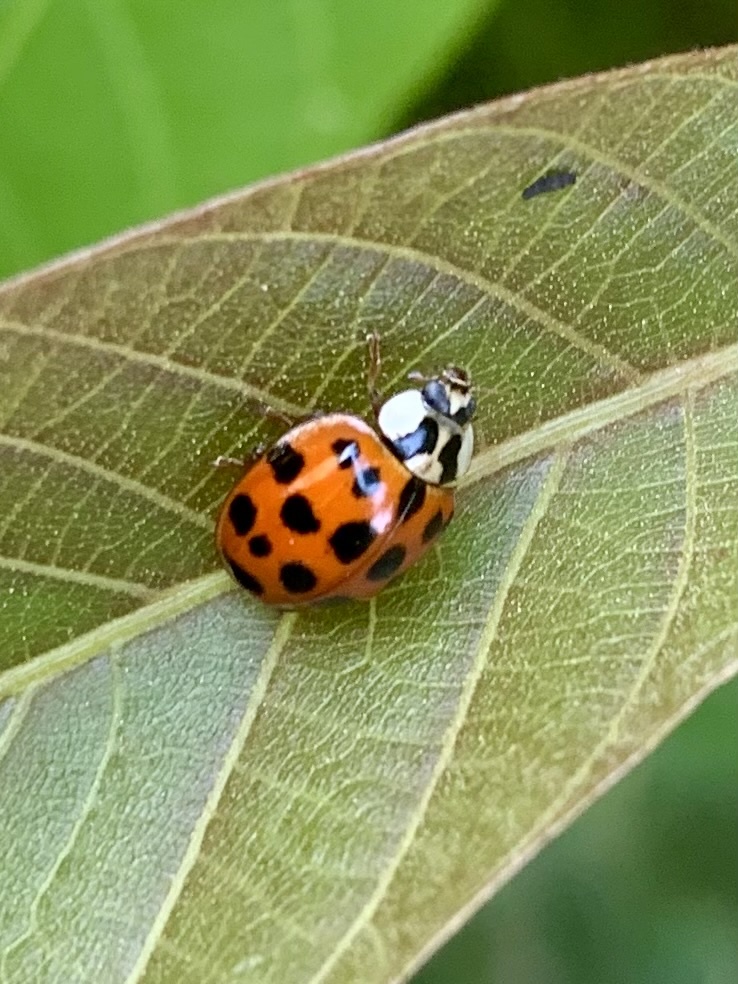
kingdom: Animalia
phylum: Arthropoda
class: Insecta
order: Coleoptera
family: Coccinellidae
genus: Harmonia
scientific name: Harmonia axyridis
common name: Harlequin ladybird
